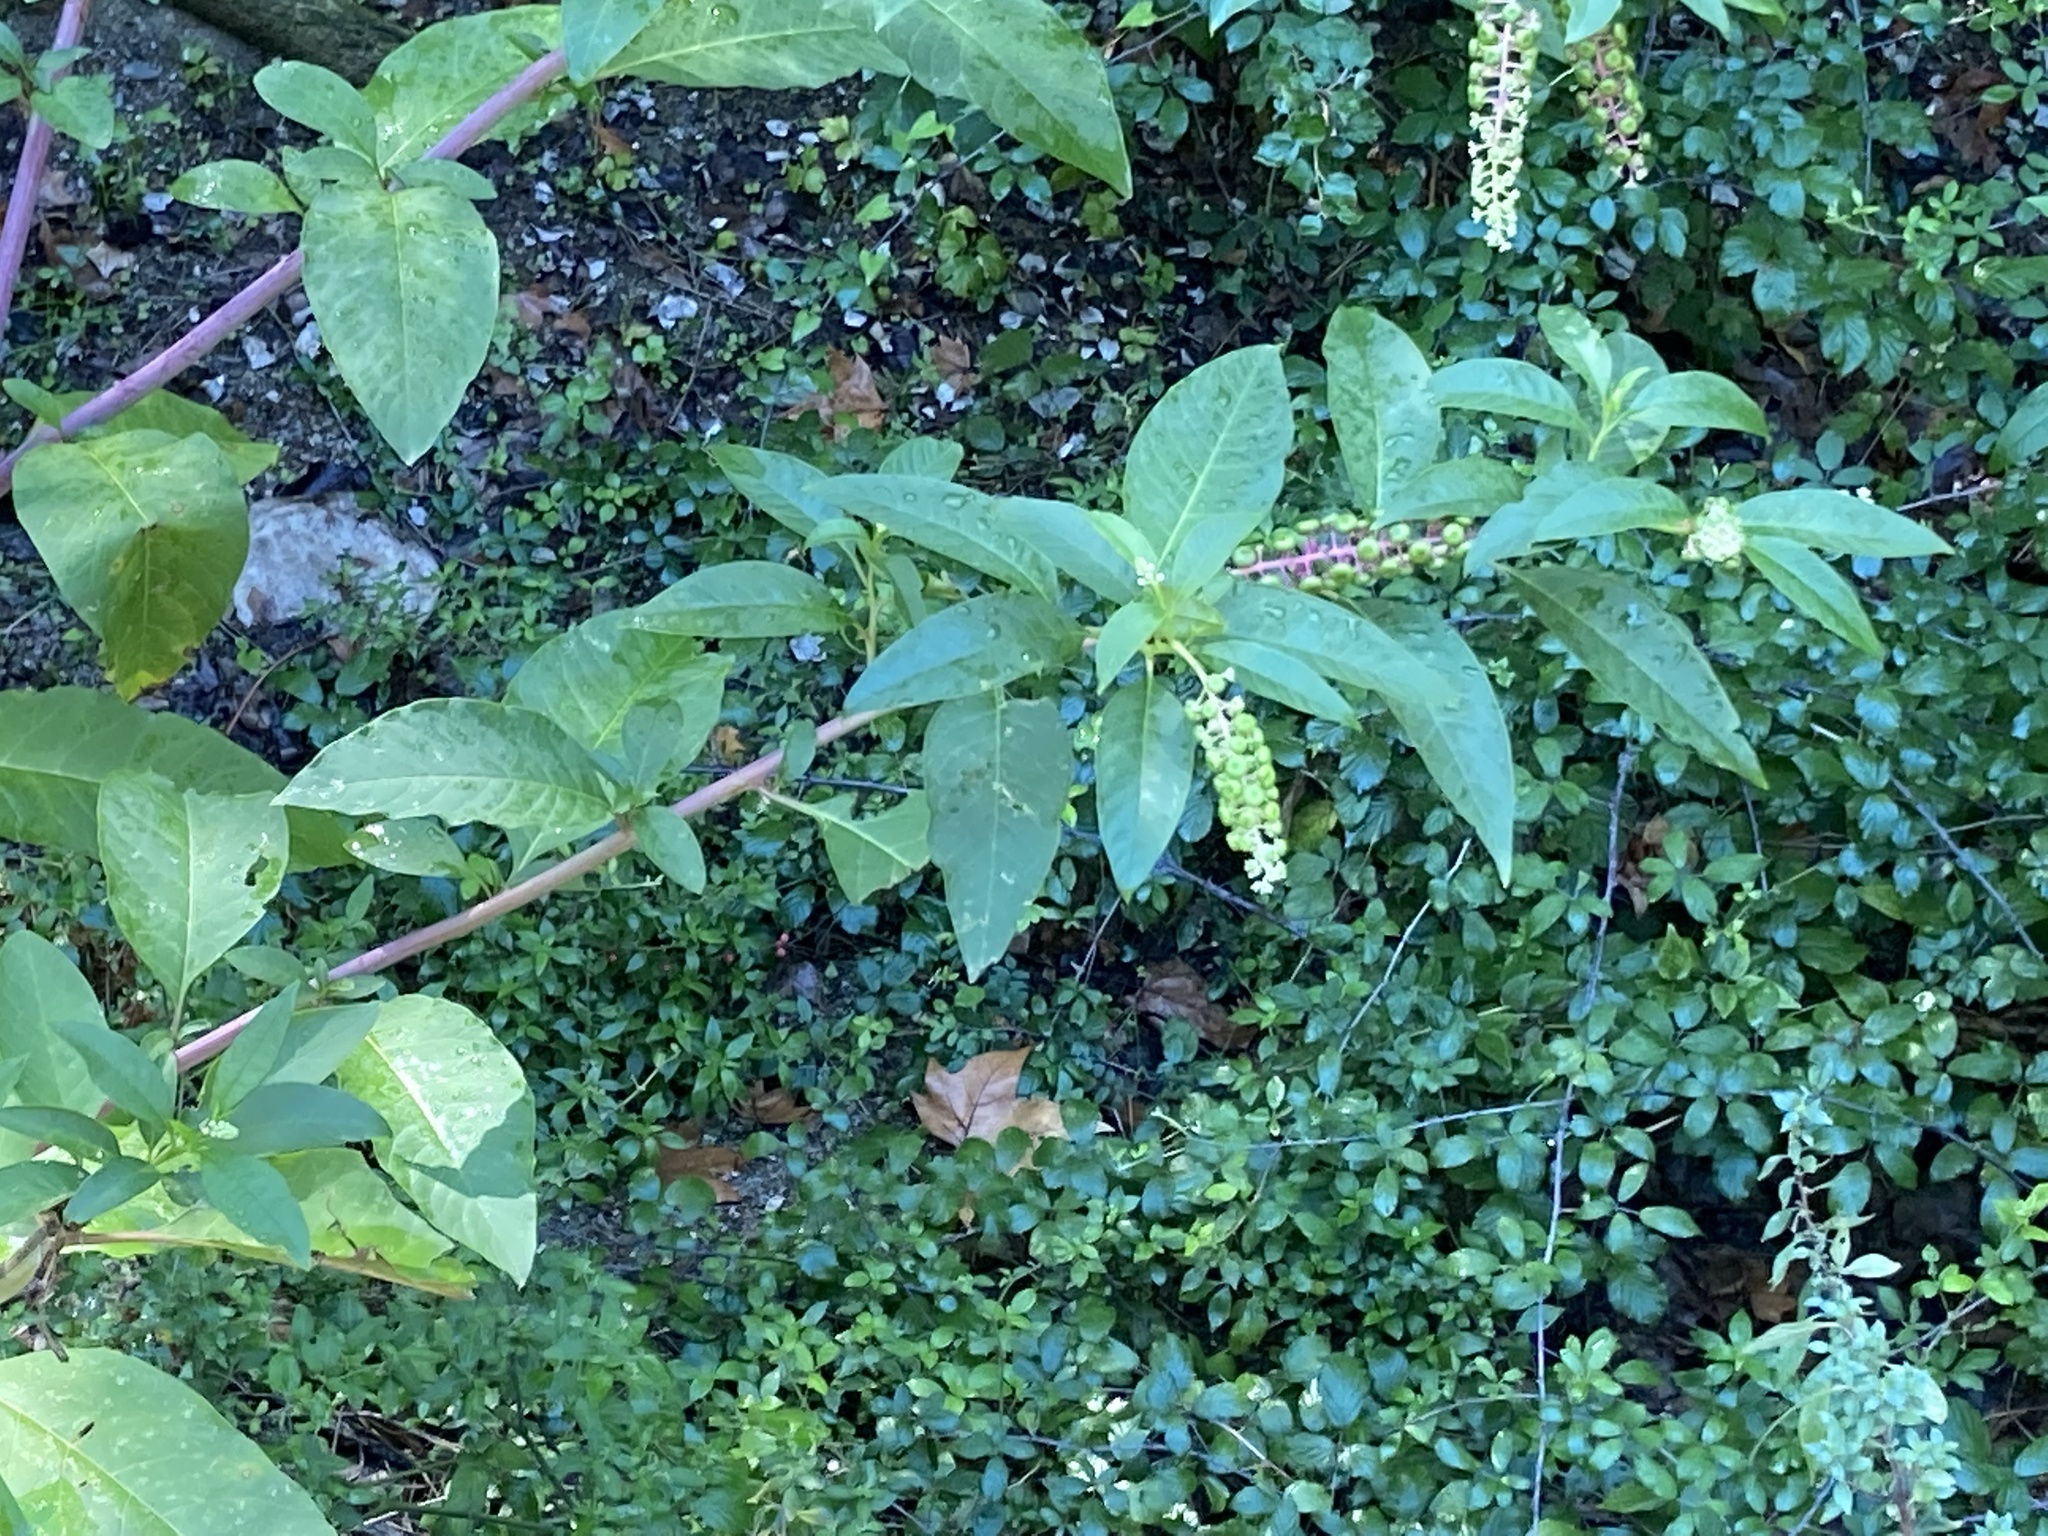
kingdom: Plantae
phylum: Tracheophyta
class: Magnoliopsida
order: Caryophyllales
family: Phytolaccaceae
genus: Phytolacca
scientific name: Phytolacca americana
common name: American pokeweed
